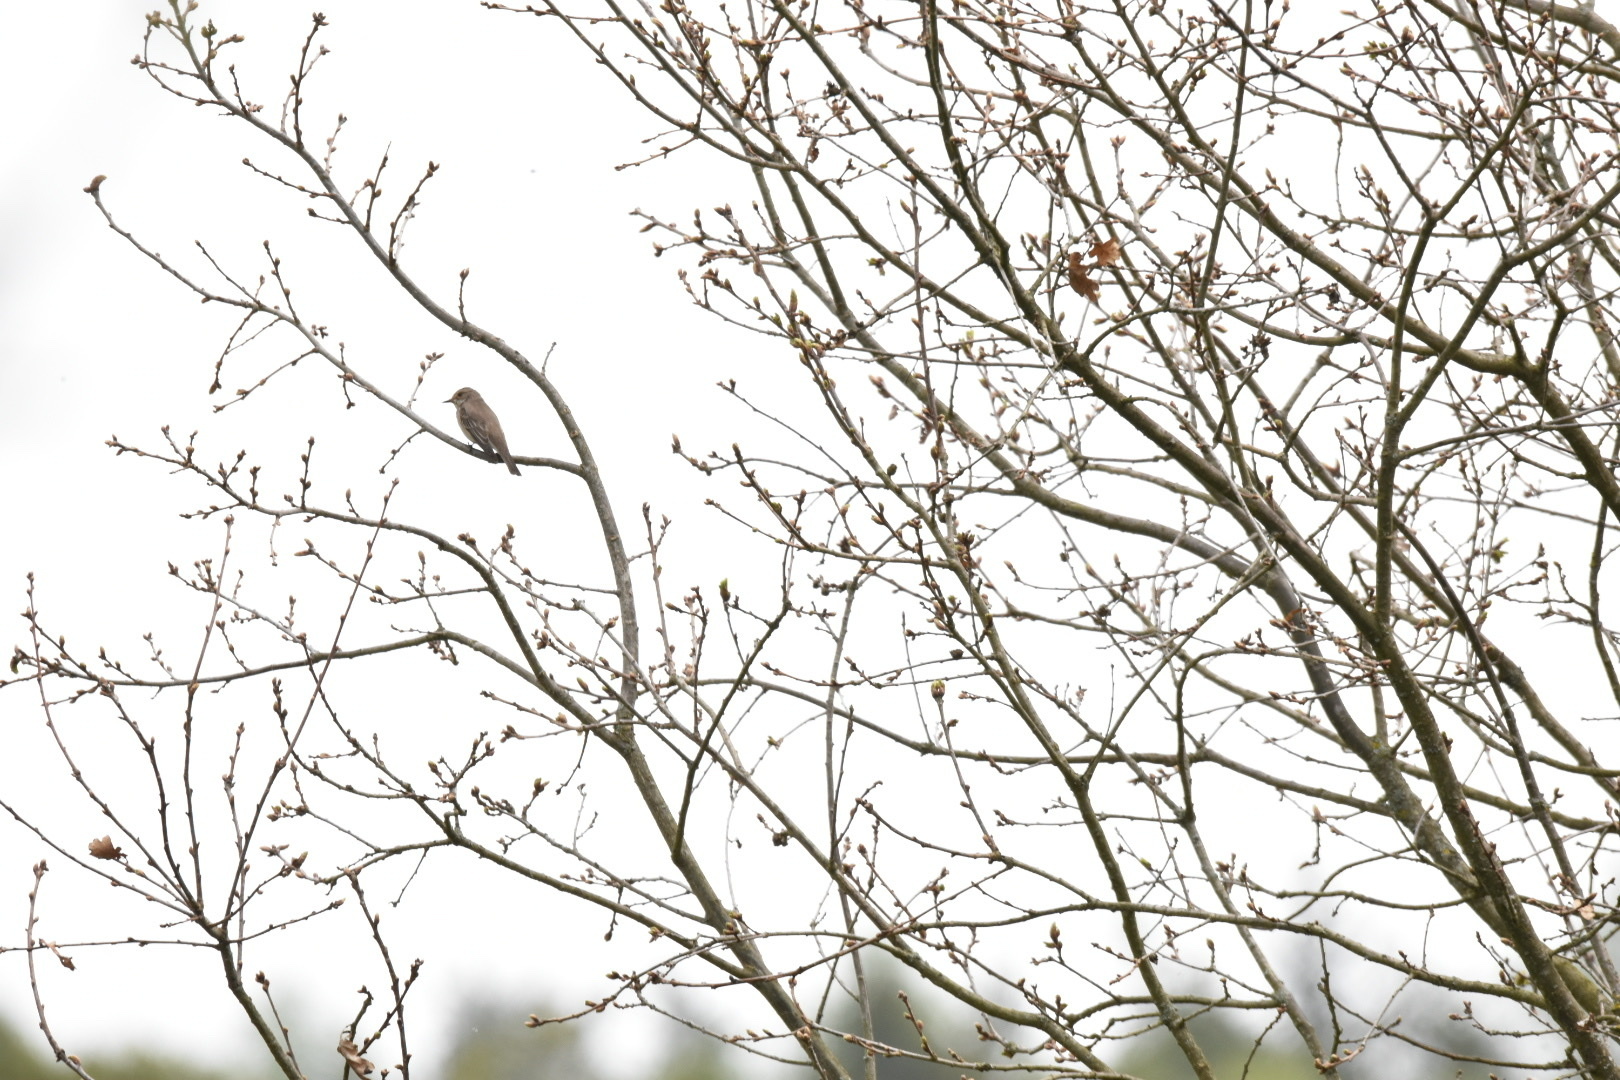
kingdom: Animalia
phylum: Chordata
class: Aves
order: Passeriformes
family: Muscicapidae
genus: Muscicapa
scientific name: Muscicapa striata
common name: Spotted flycatcher
